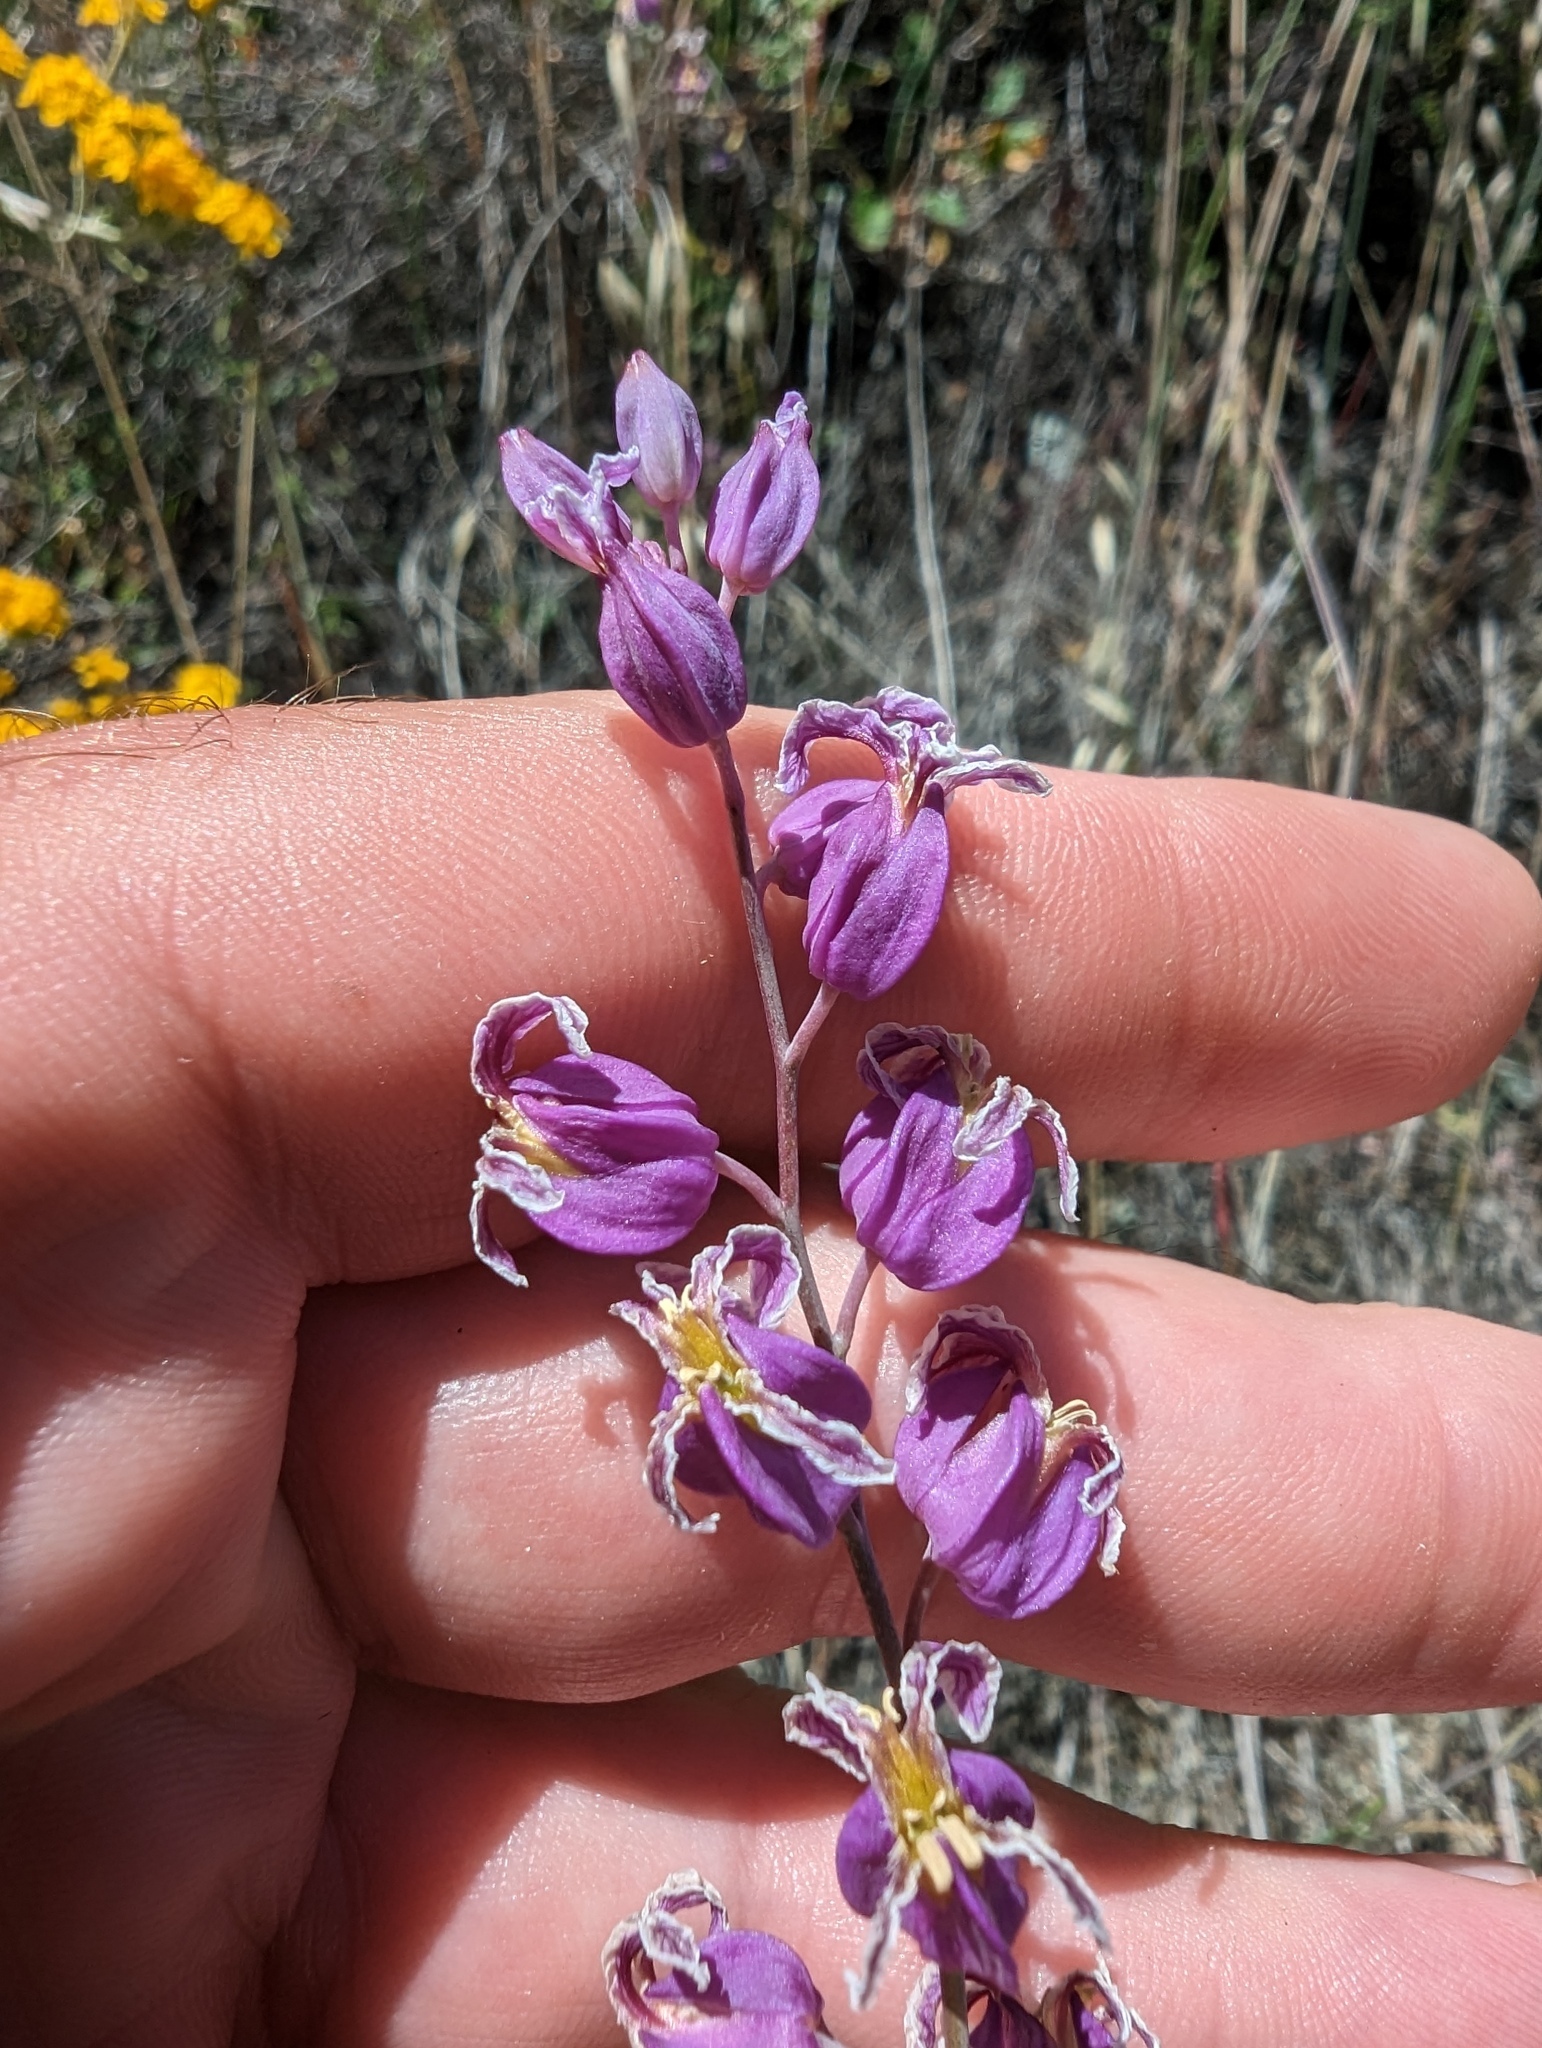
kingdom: Plantae
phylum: Tracheophyta
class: Magnoliopsida
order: Brassicales
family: Brassicaceae
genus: Streptanthus
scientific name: Streptanthus glandulosus
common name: Jewel-flower
